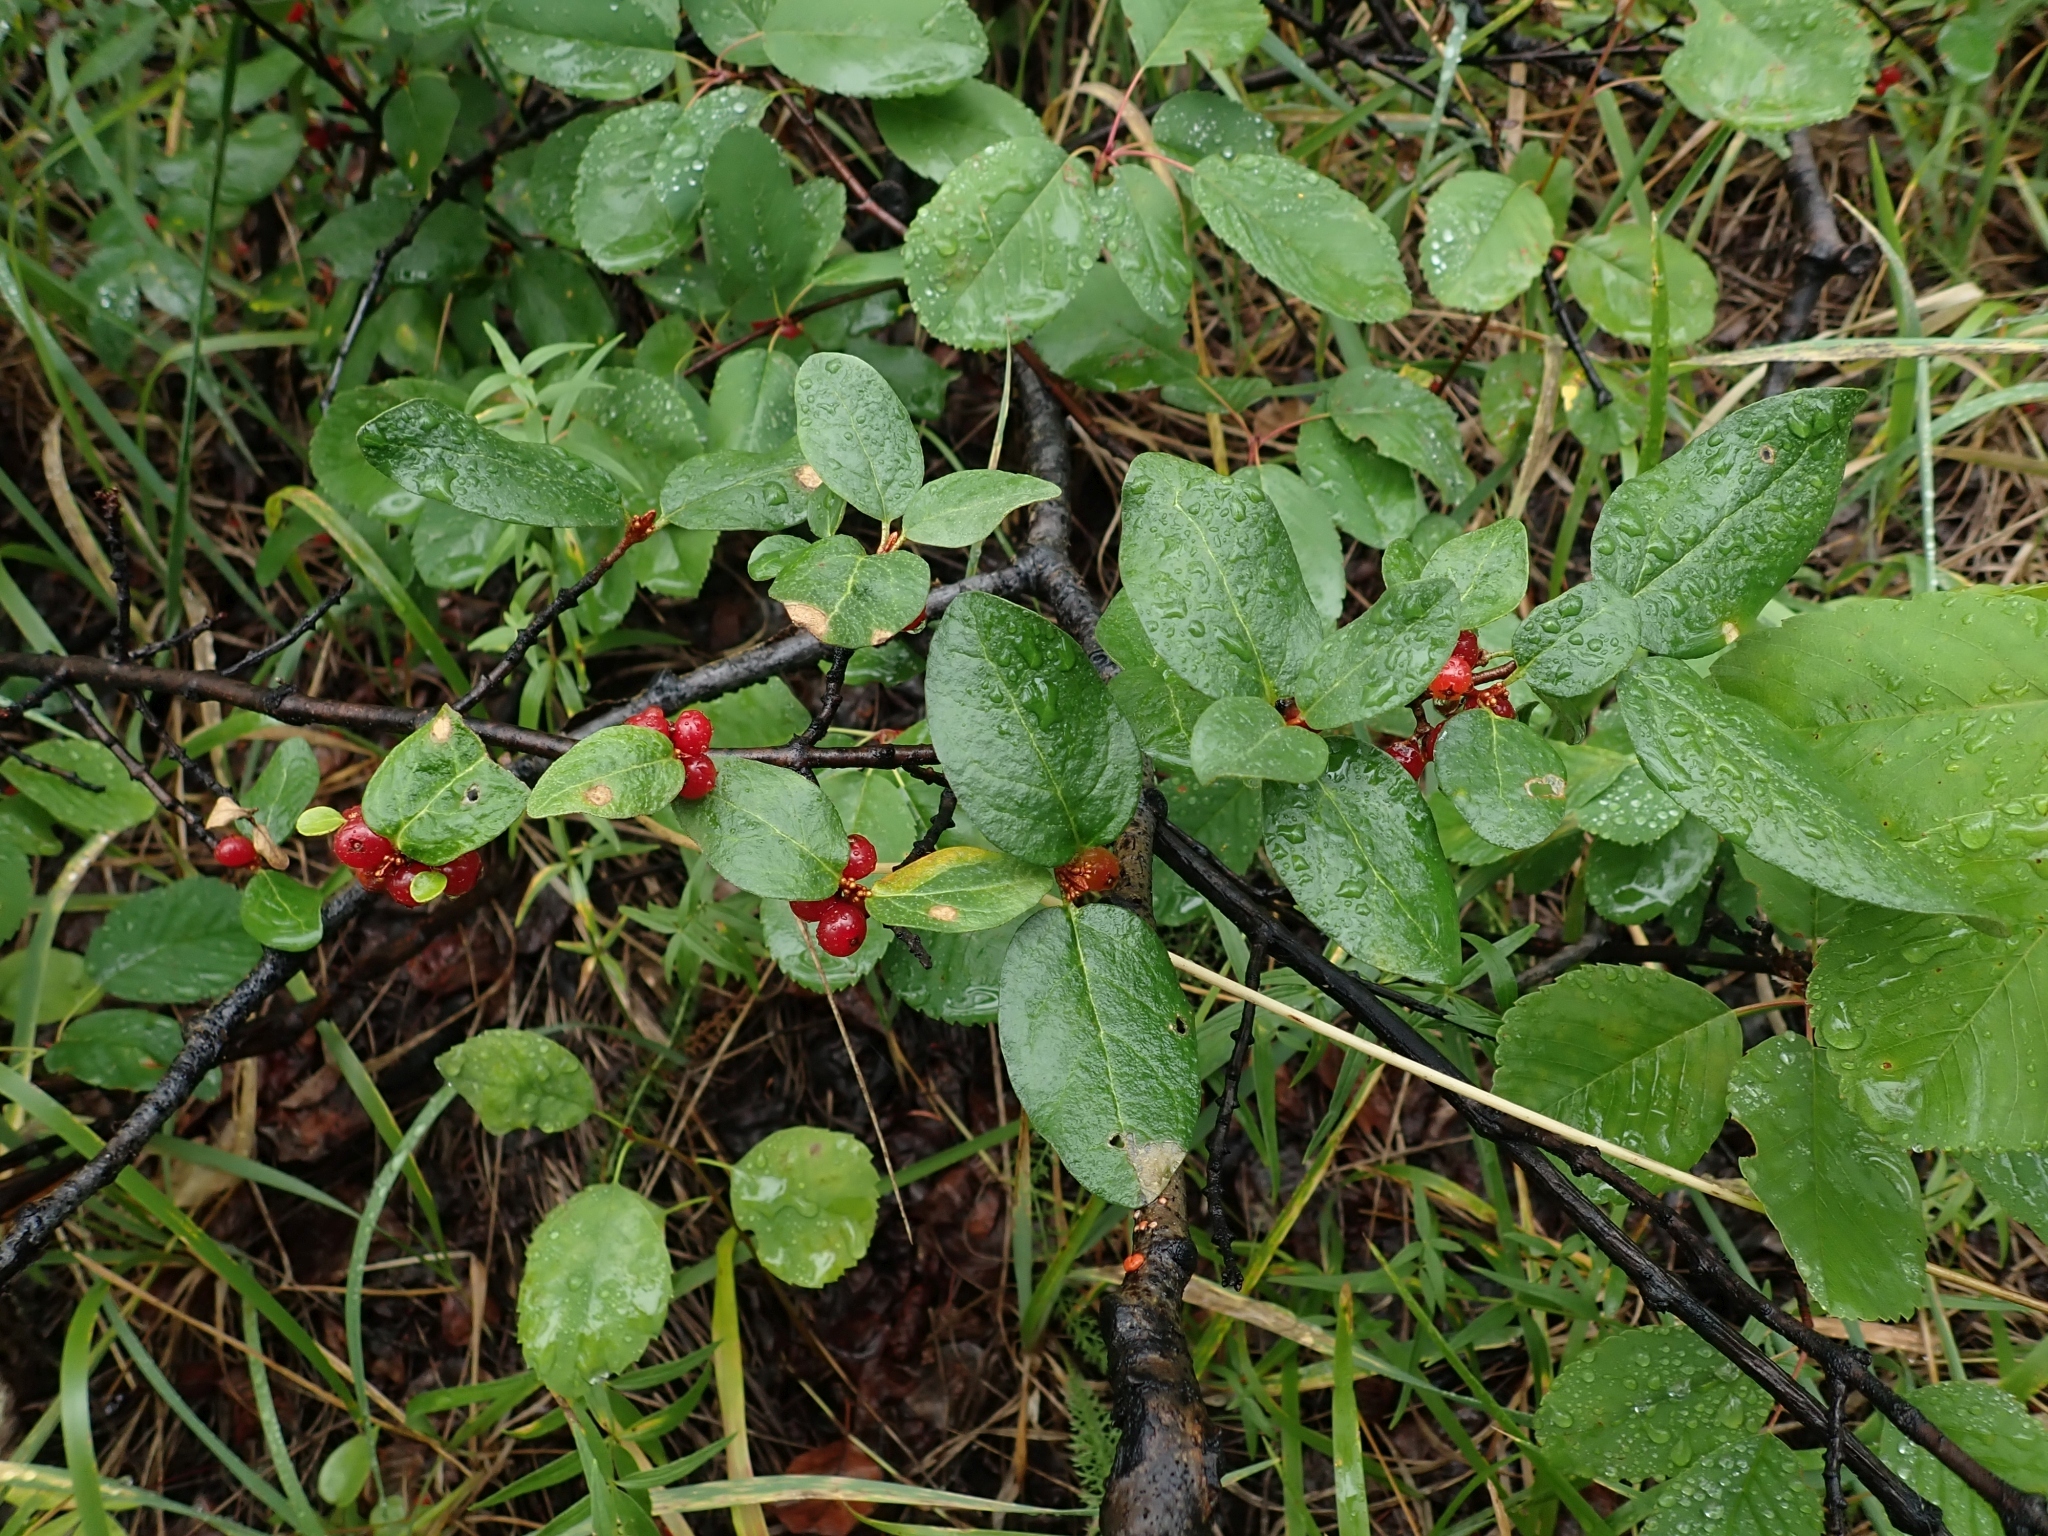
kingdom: Plantae
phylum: Tracheophyta
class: Magnoliopsida
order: Rosales
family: Elaeagnaceae
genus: Shepherdia
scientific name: Shepherdia canadensis
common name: Soapberry
